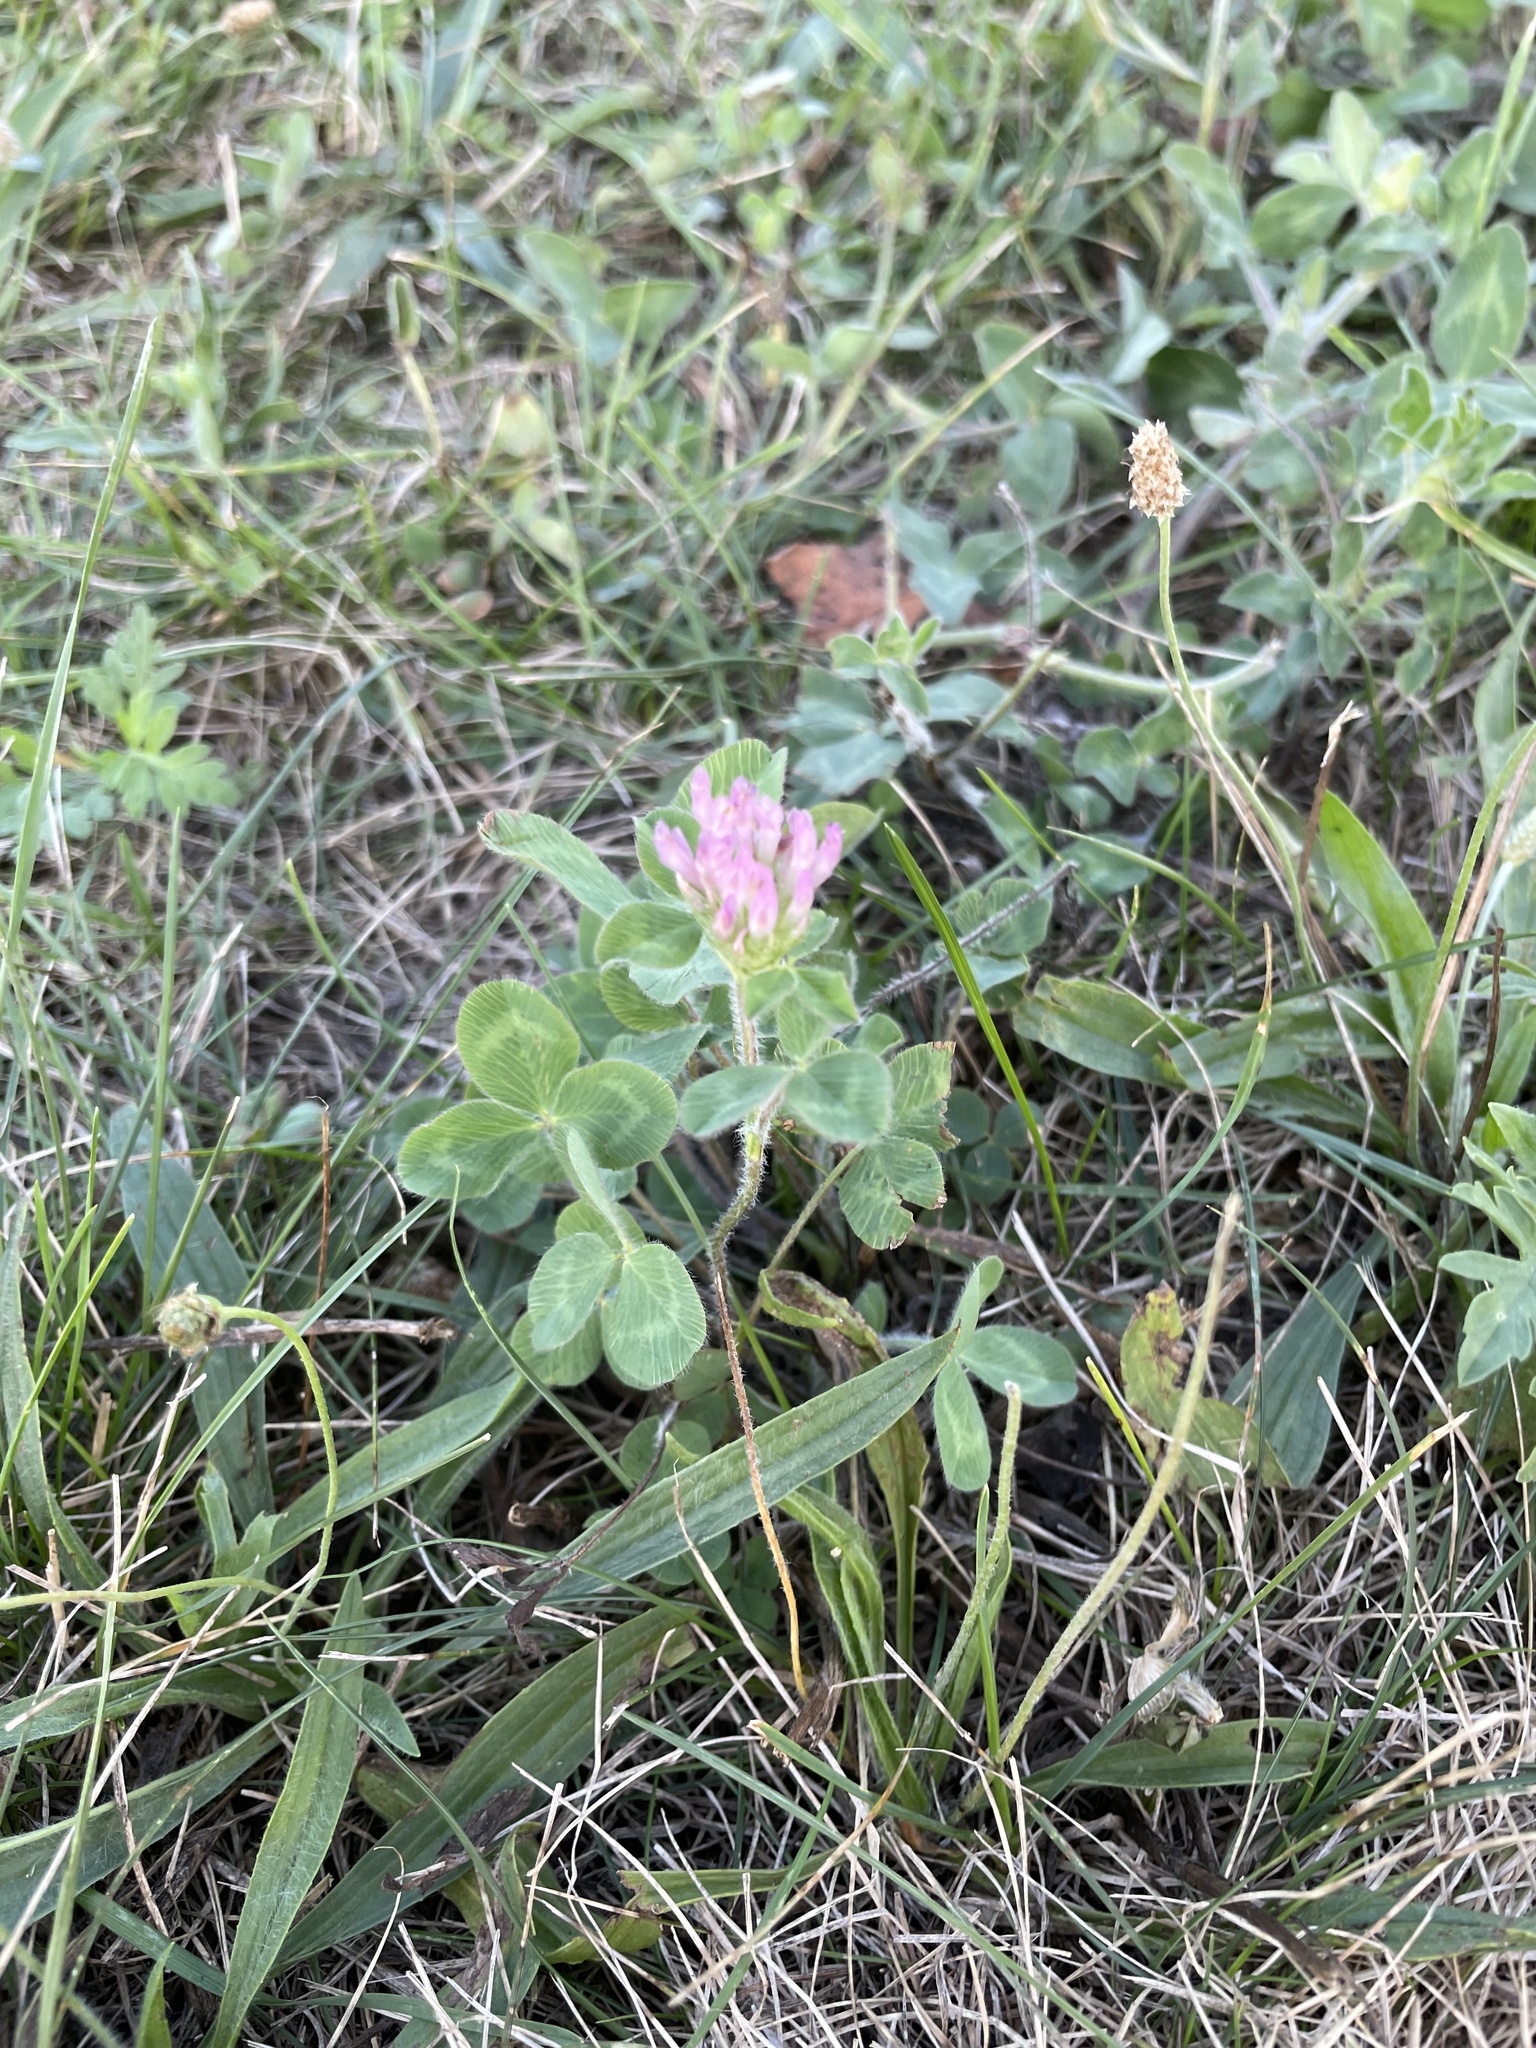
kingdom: Plantae
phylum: Tracheophyta
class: Magnoliopsida
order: Fabales
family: Fabaceae
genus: Trifolium
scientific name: Trifolium pratense
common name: Red clover
